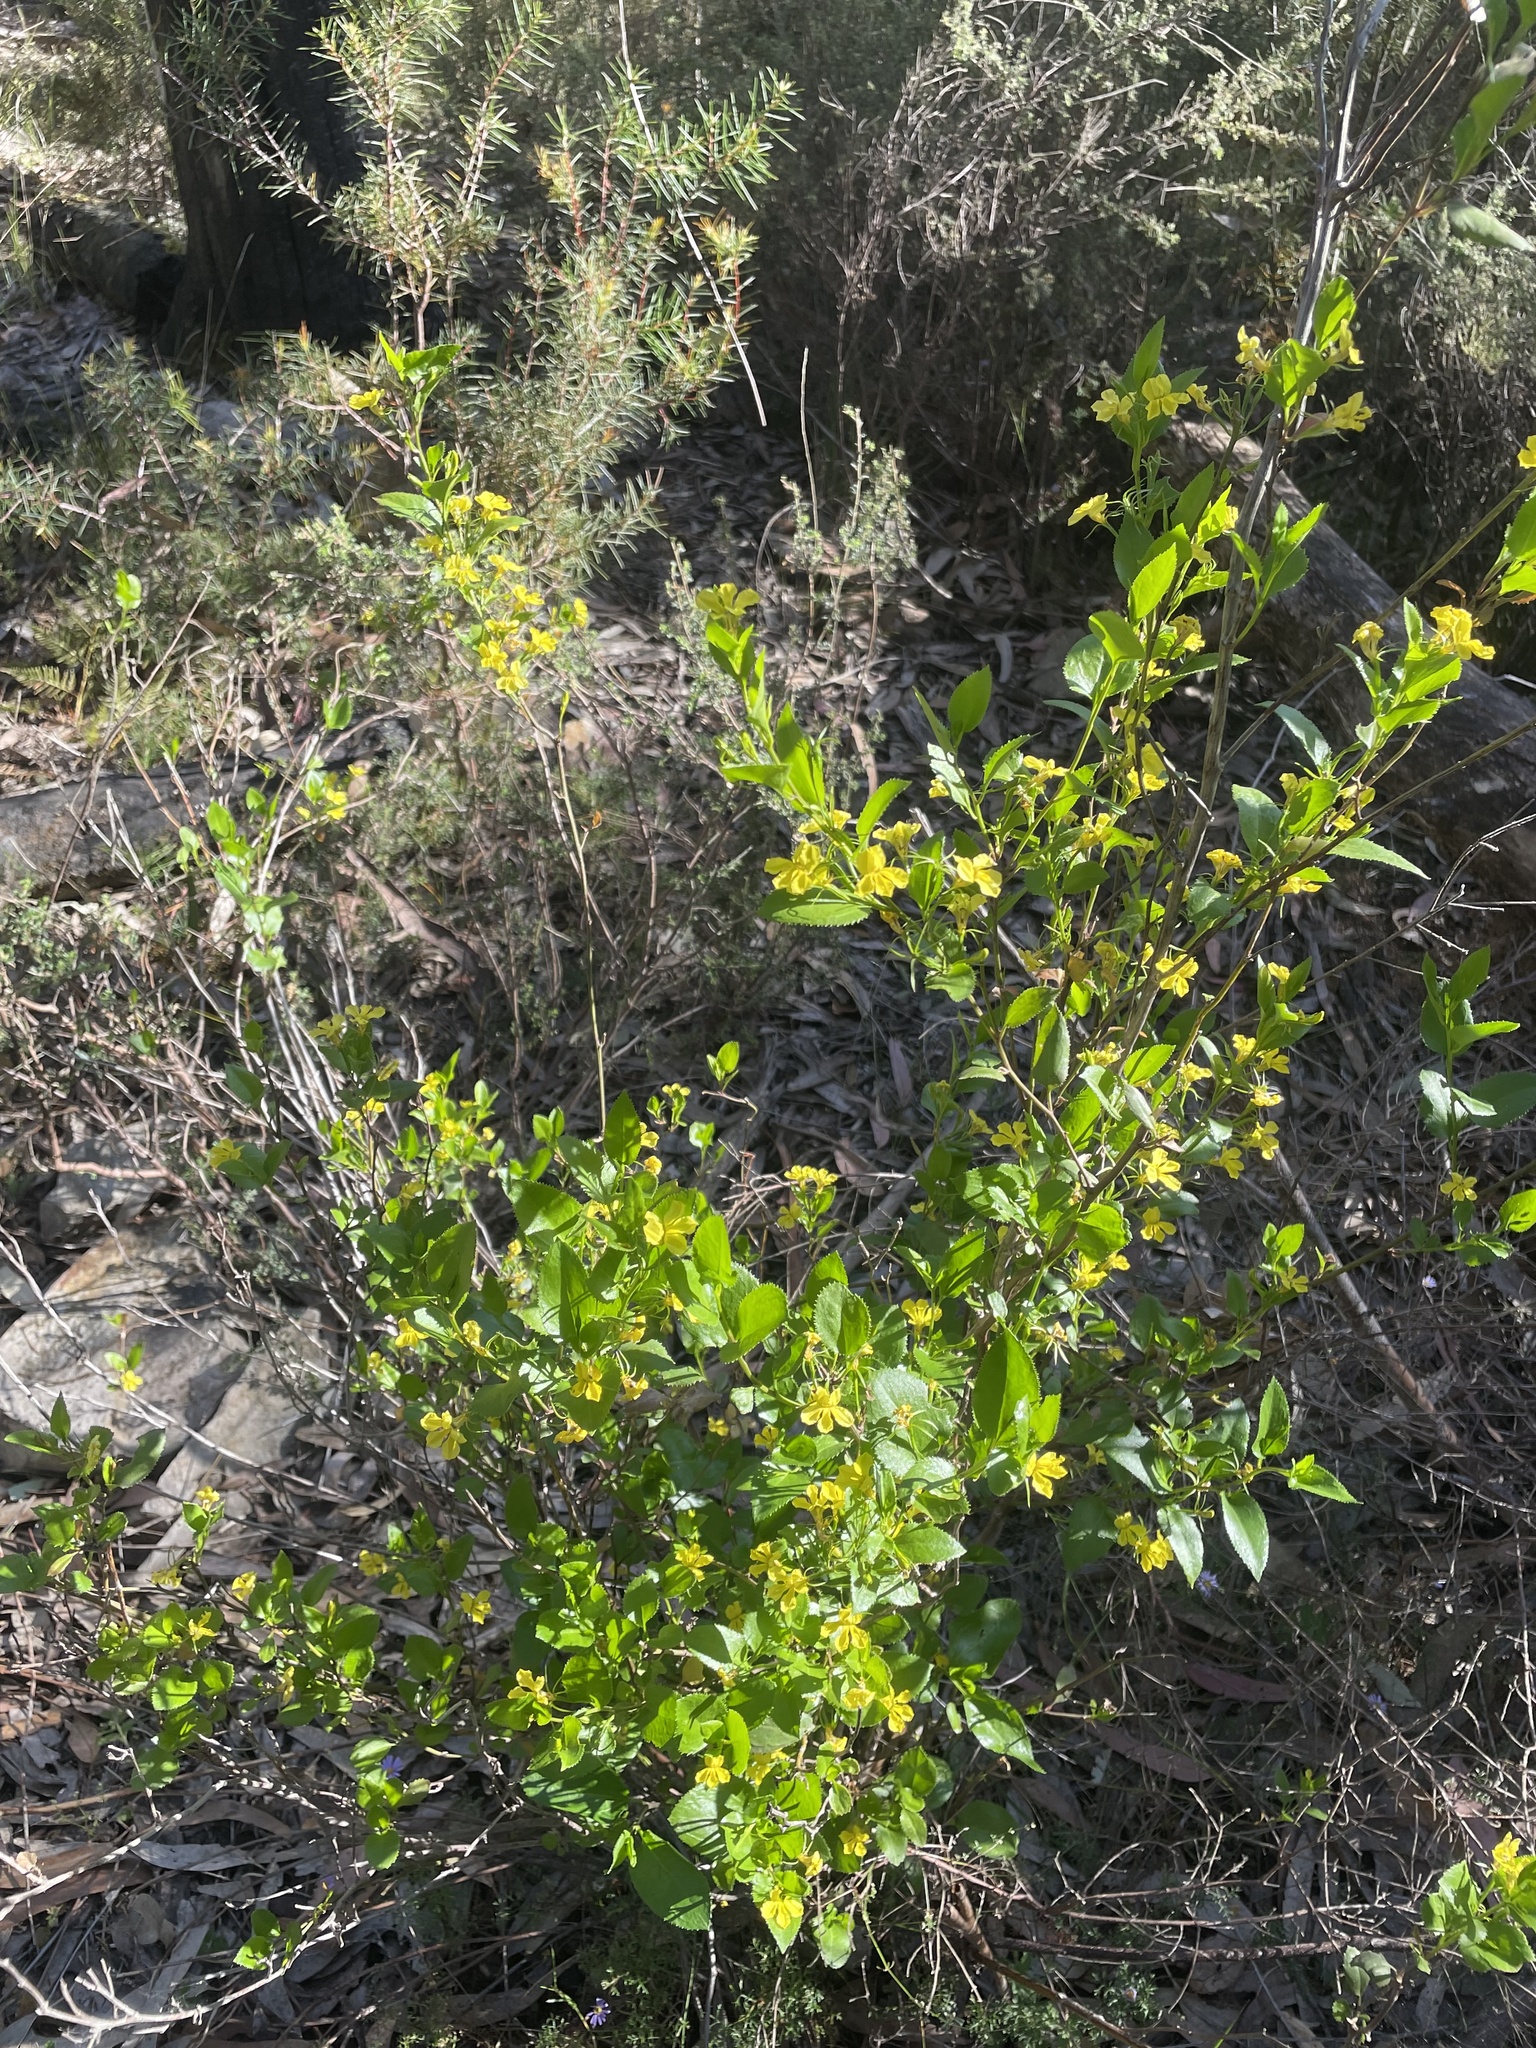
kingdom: Plantae
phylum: Tracheophyta
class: Magnoliopsida
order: Asterales
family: Goodeniaceae
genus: Goodenia
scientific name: Goodenia ovata
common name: Hop goodenia
